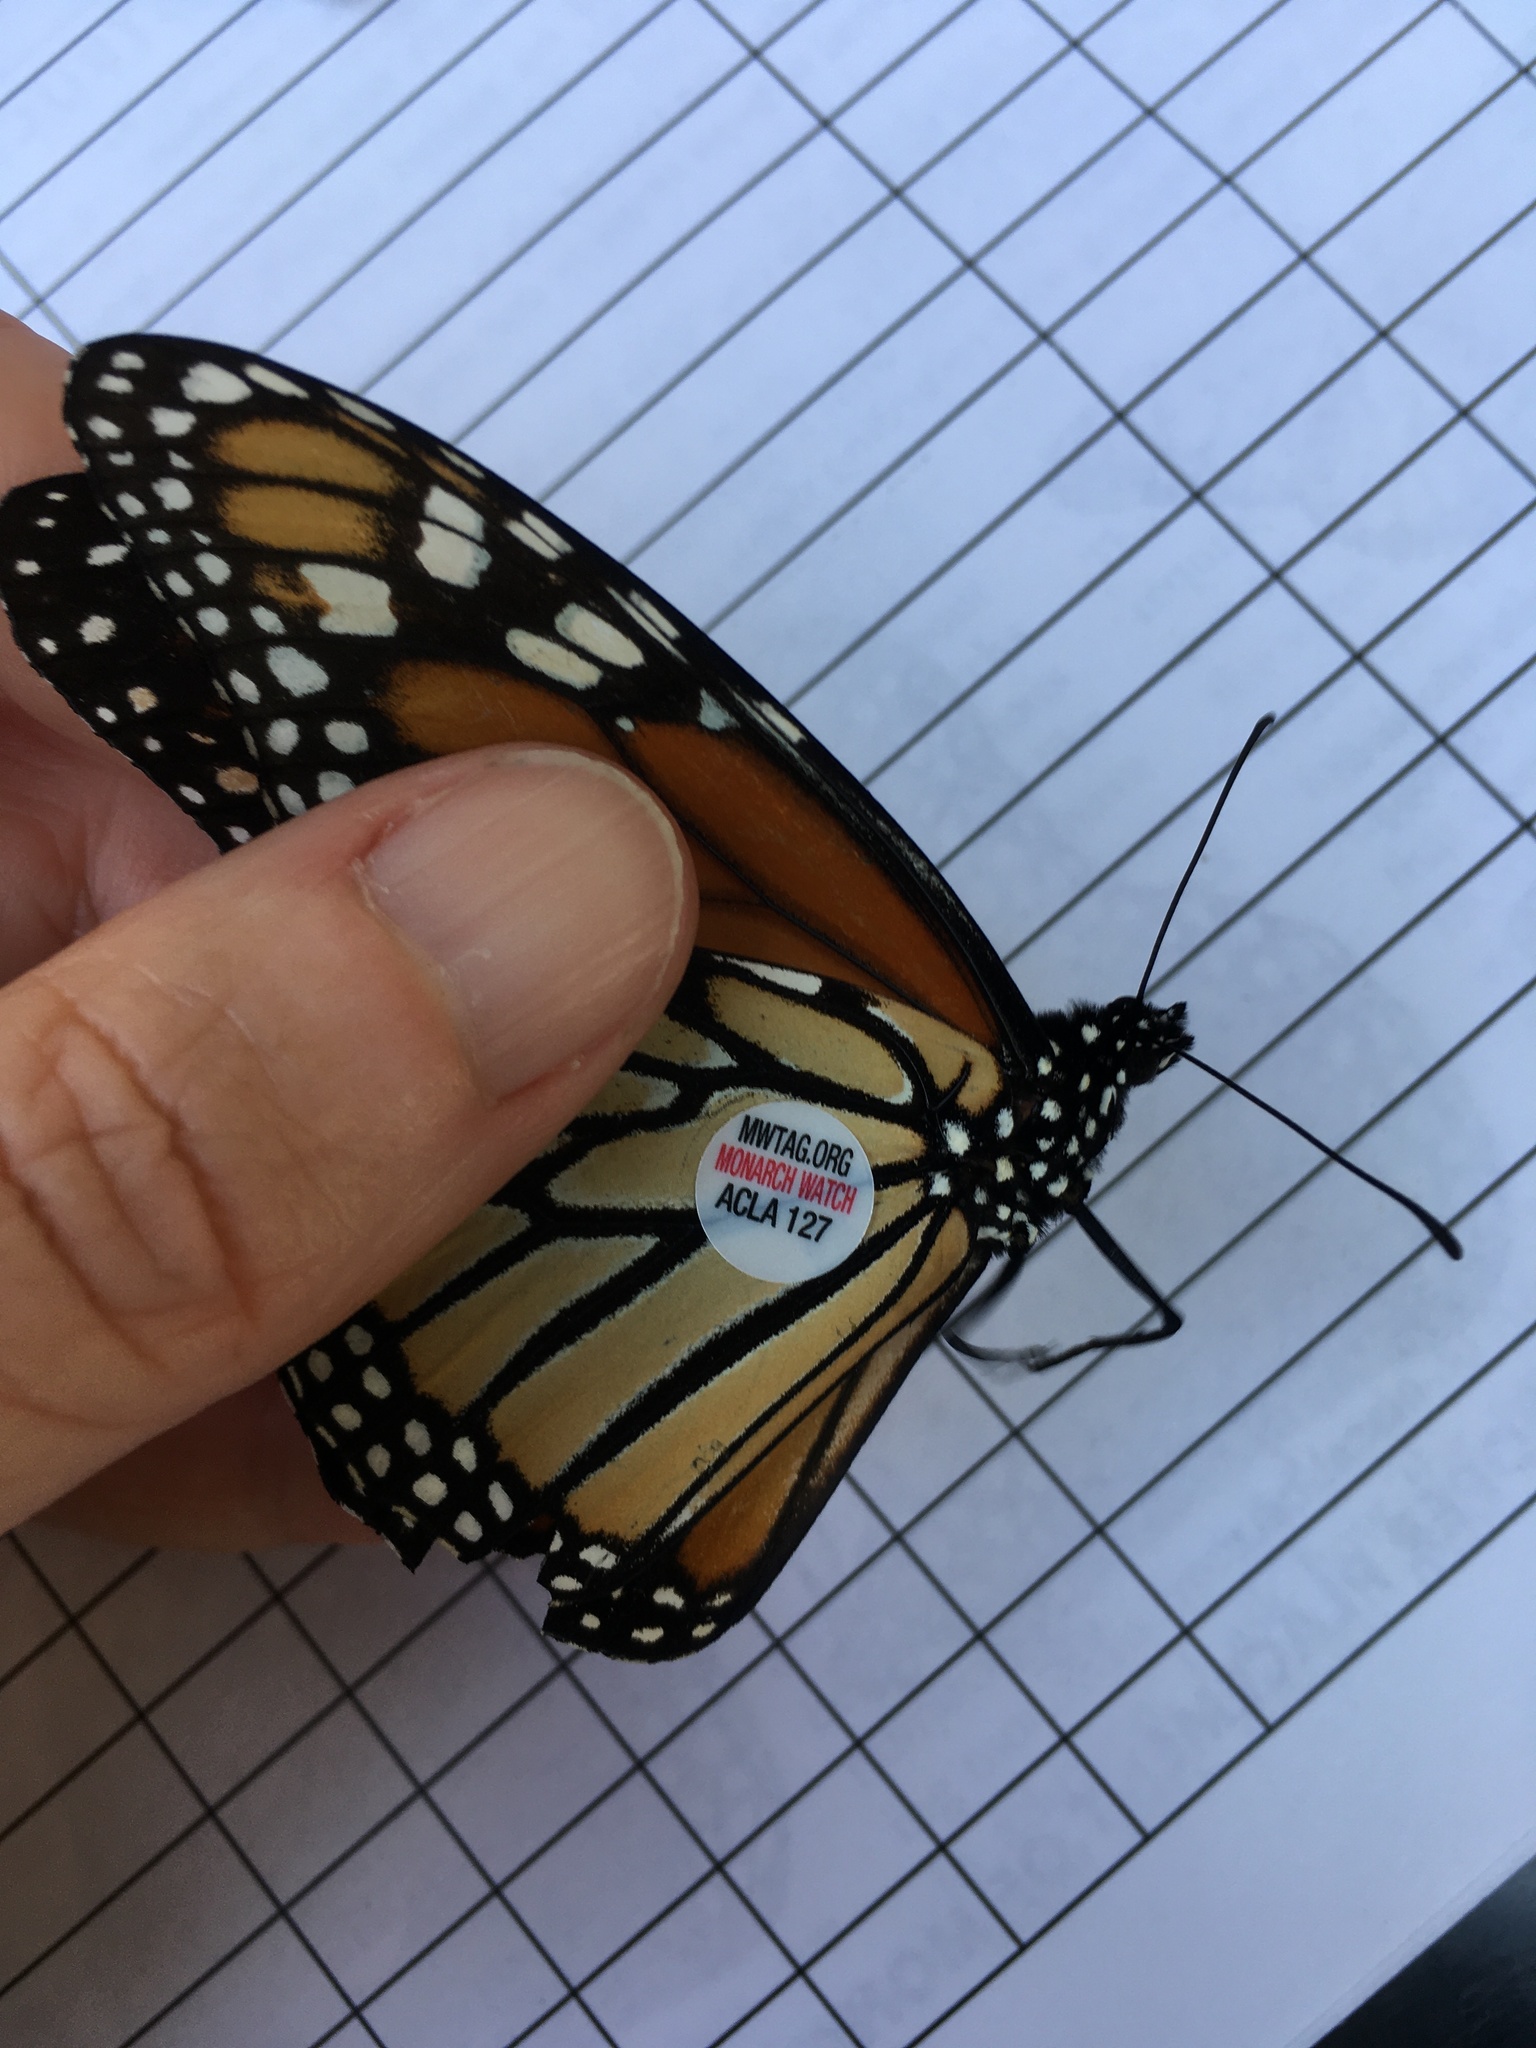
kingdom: Animalia
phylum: Arthropoda
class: Insecta
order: Lepidoptera
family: Nymphalidae
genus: Danaus
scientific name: Danaus plexippus
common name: Monarch
